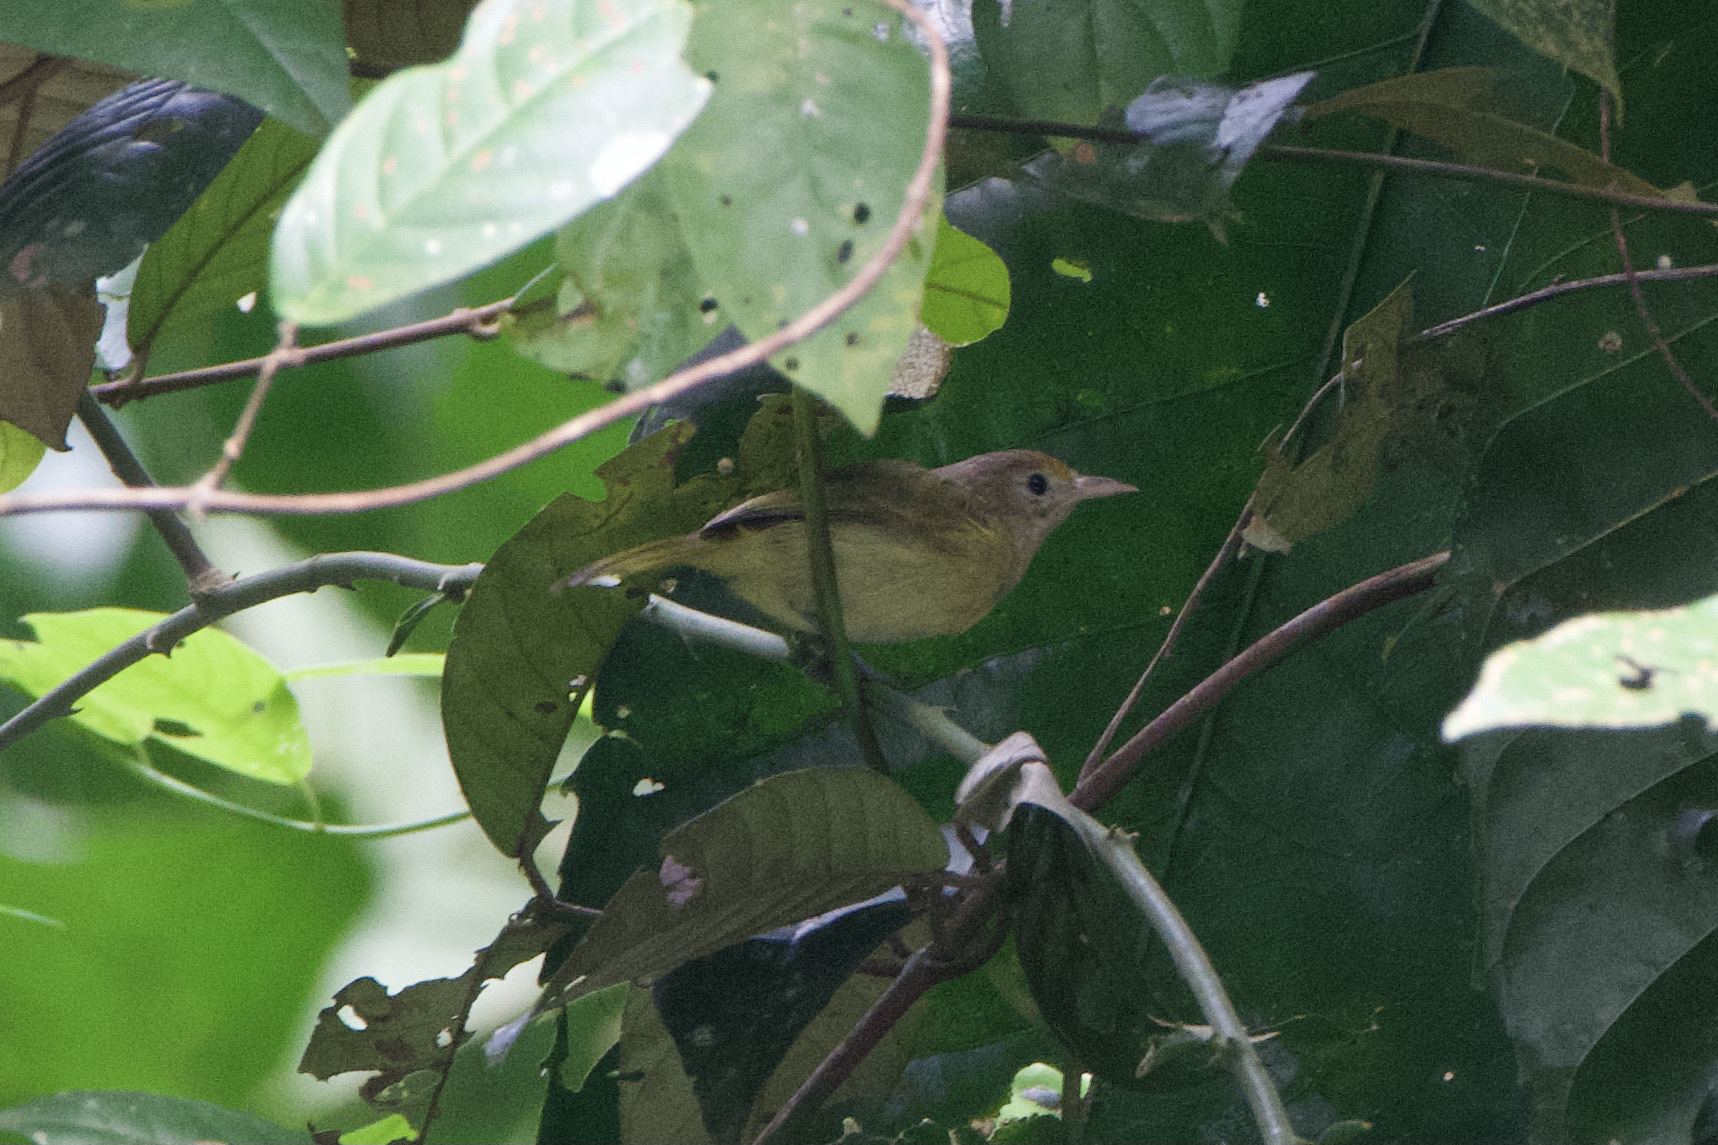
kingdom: Animalia
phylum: Chordata
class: Aves
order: Passeriformes
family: Vireonidae
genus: Hylophilus
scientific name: Hylophilus aurantiifrons
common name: Golden-fronted greenlet
